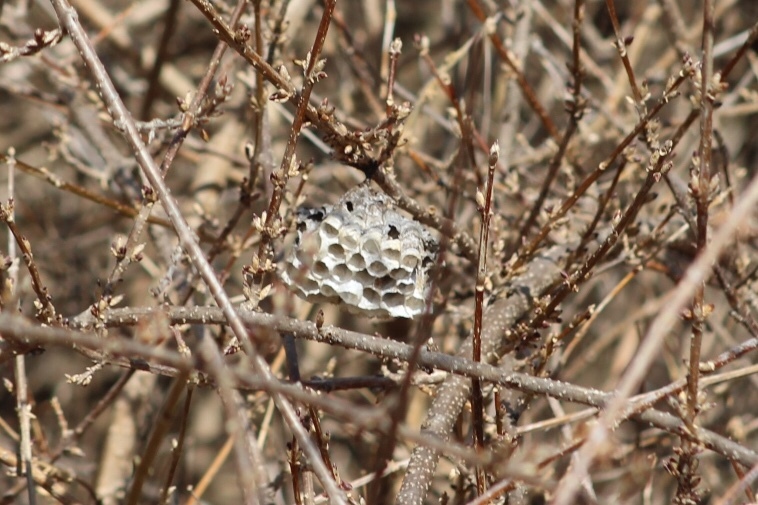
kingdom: Animalia
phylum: Arthropoda
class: Insecta
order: Hymenoptera
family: Eumenidae
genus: Polistes
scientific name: Polistes
